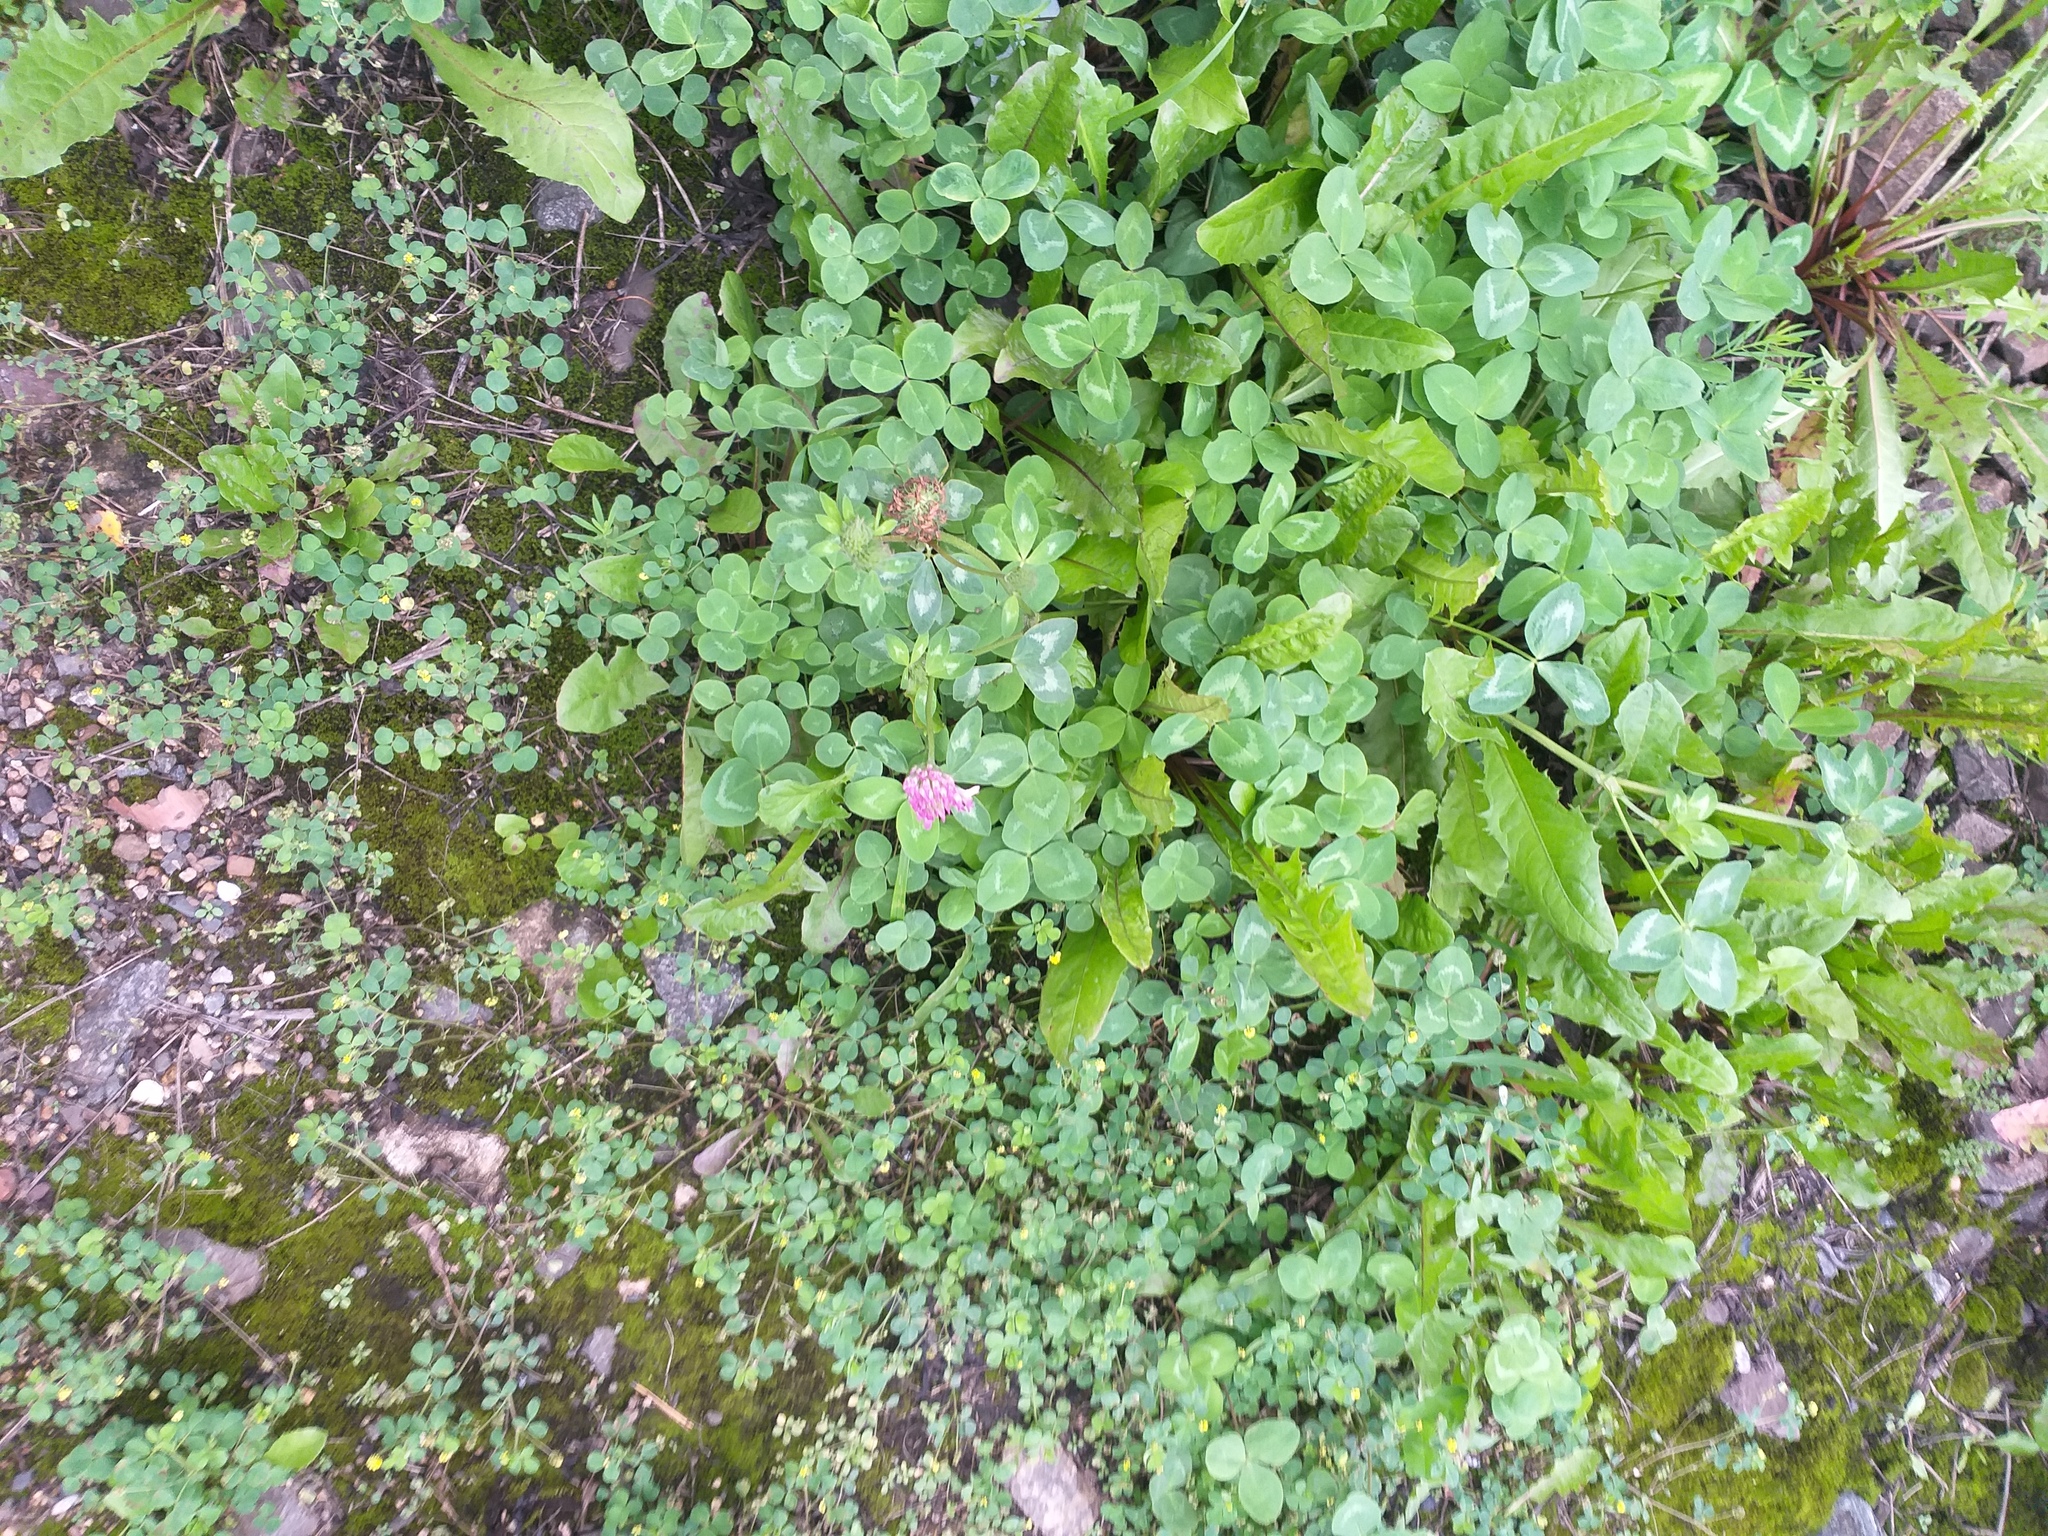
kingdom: Plantae
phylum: Tracheophyta
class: Magnoliopsida
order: Fabales
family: Fabaceae
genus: Trifolium
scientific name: Trifolium pratense
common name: Red clover
